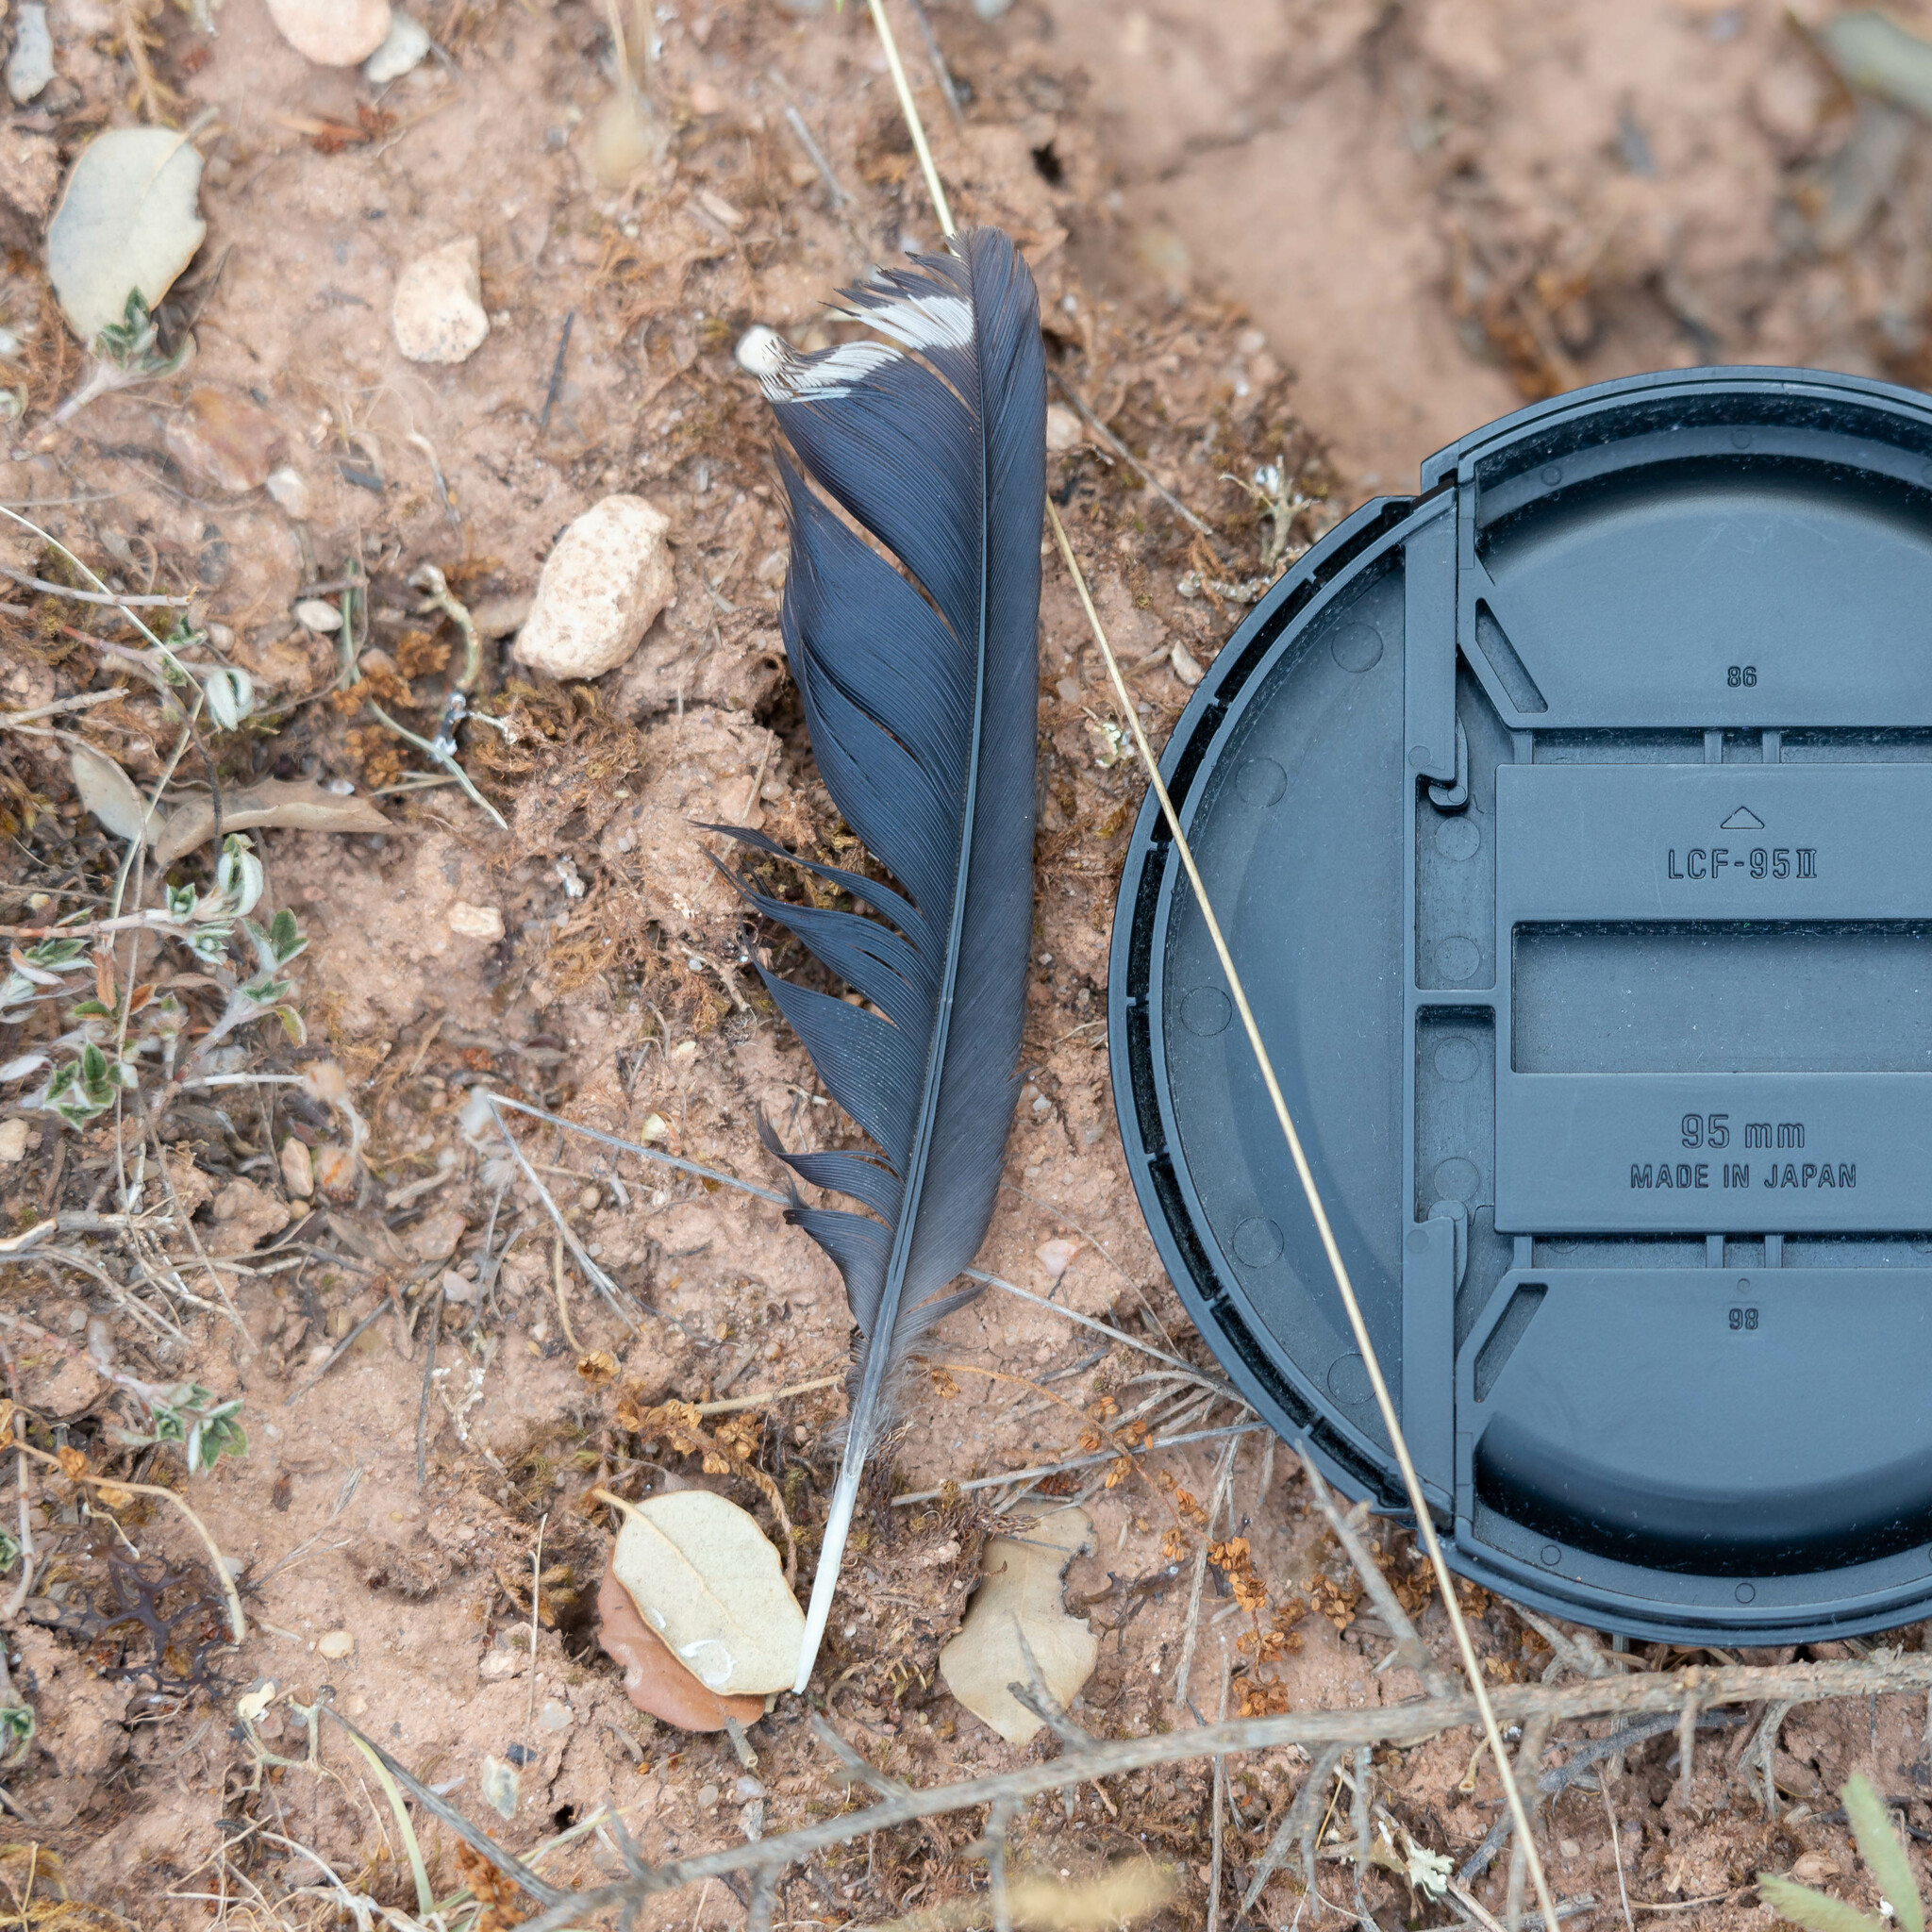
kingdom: Animalia
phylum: Chordata
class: Aves
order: Bucerotiformes
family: Upupidae
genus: Upupa
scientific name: Upupa epops
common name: Eurasian hoopoe
